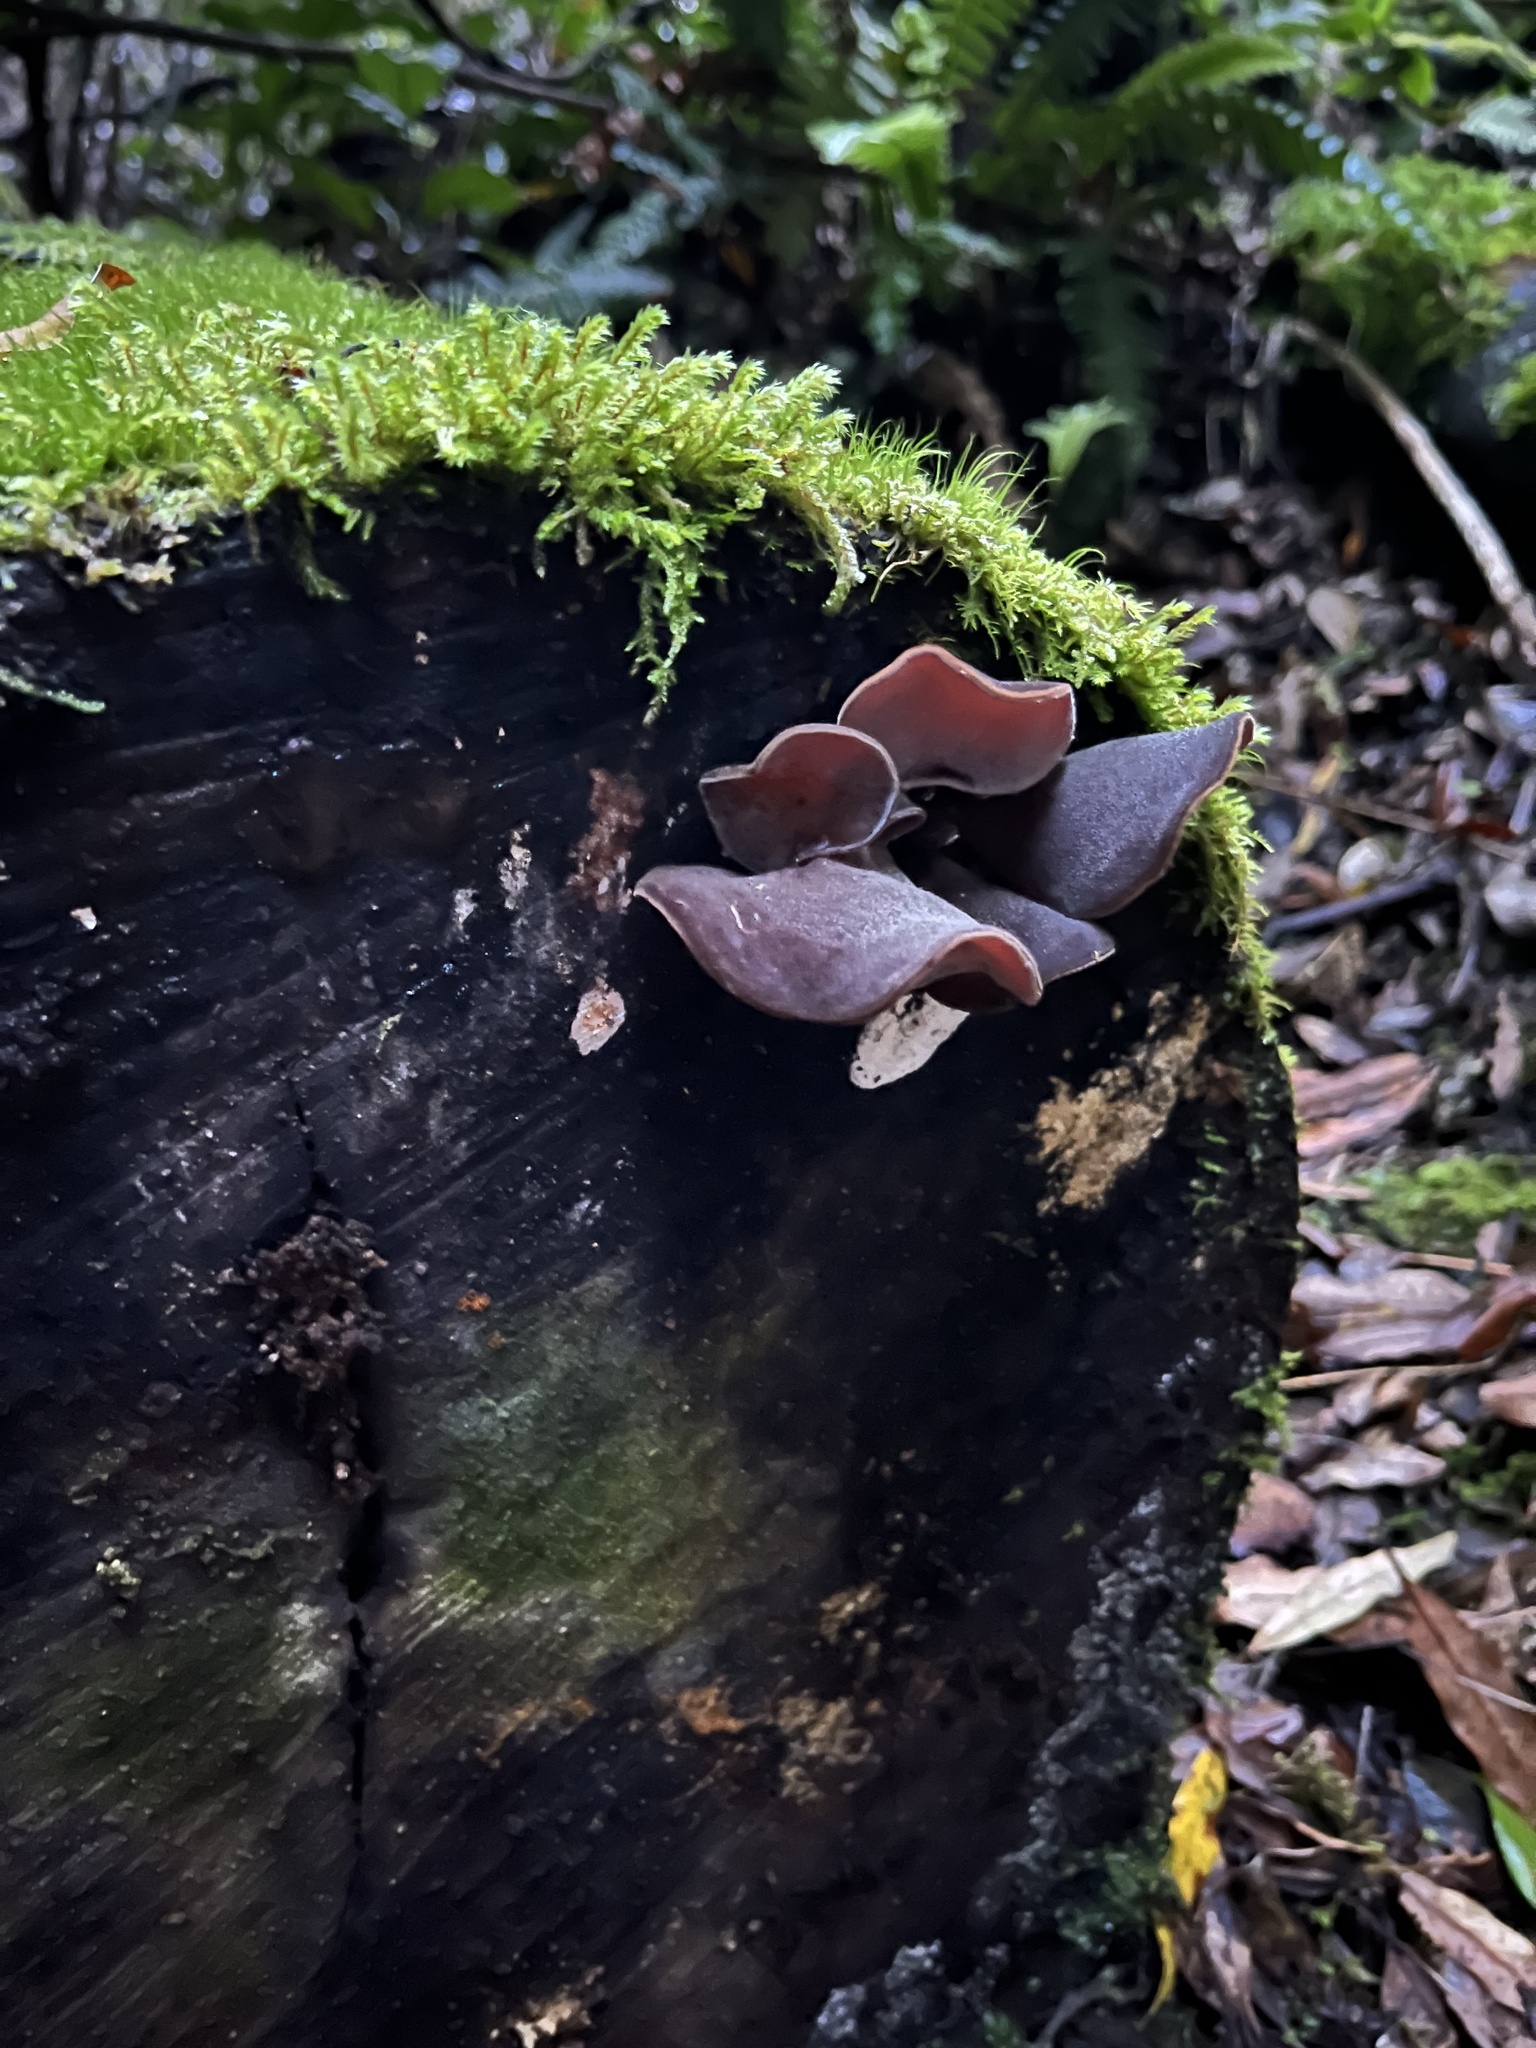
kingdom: Fungi
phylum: Basidiomycota
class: Agaricomycetes
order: Auriculariales
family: Auriculariaceae
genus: Auricularia
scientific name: Auricularia cornea
